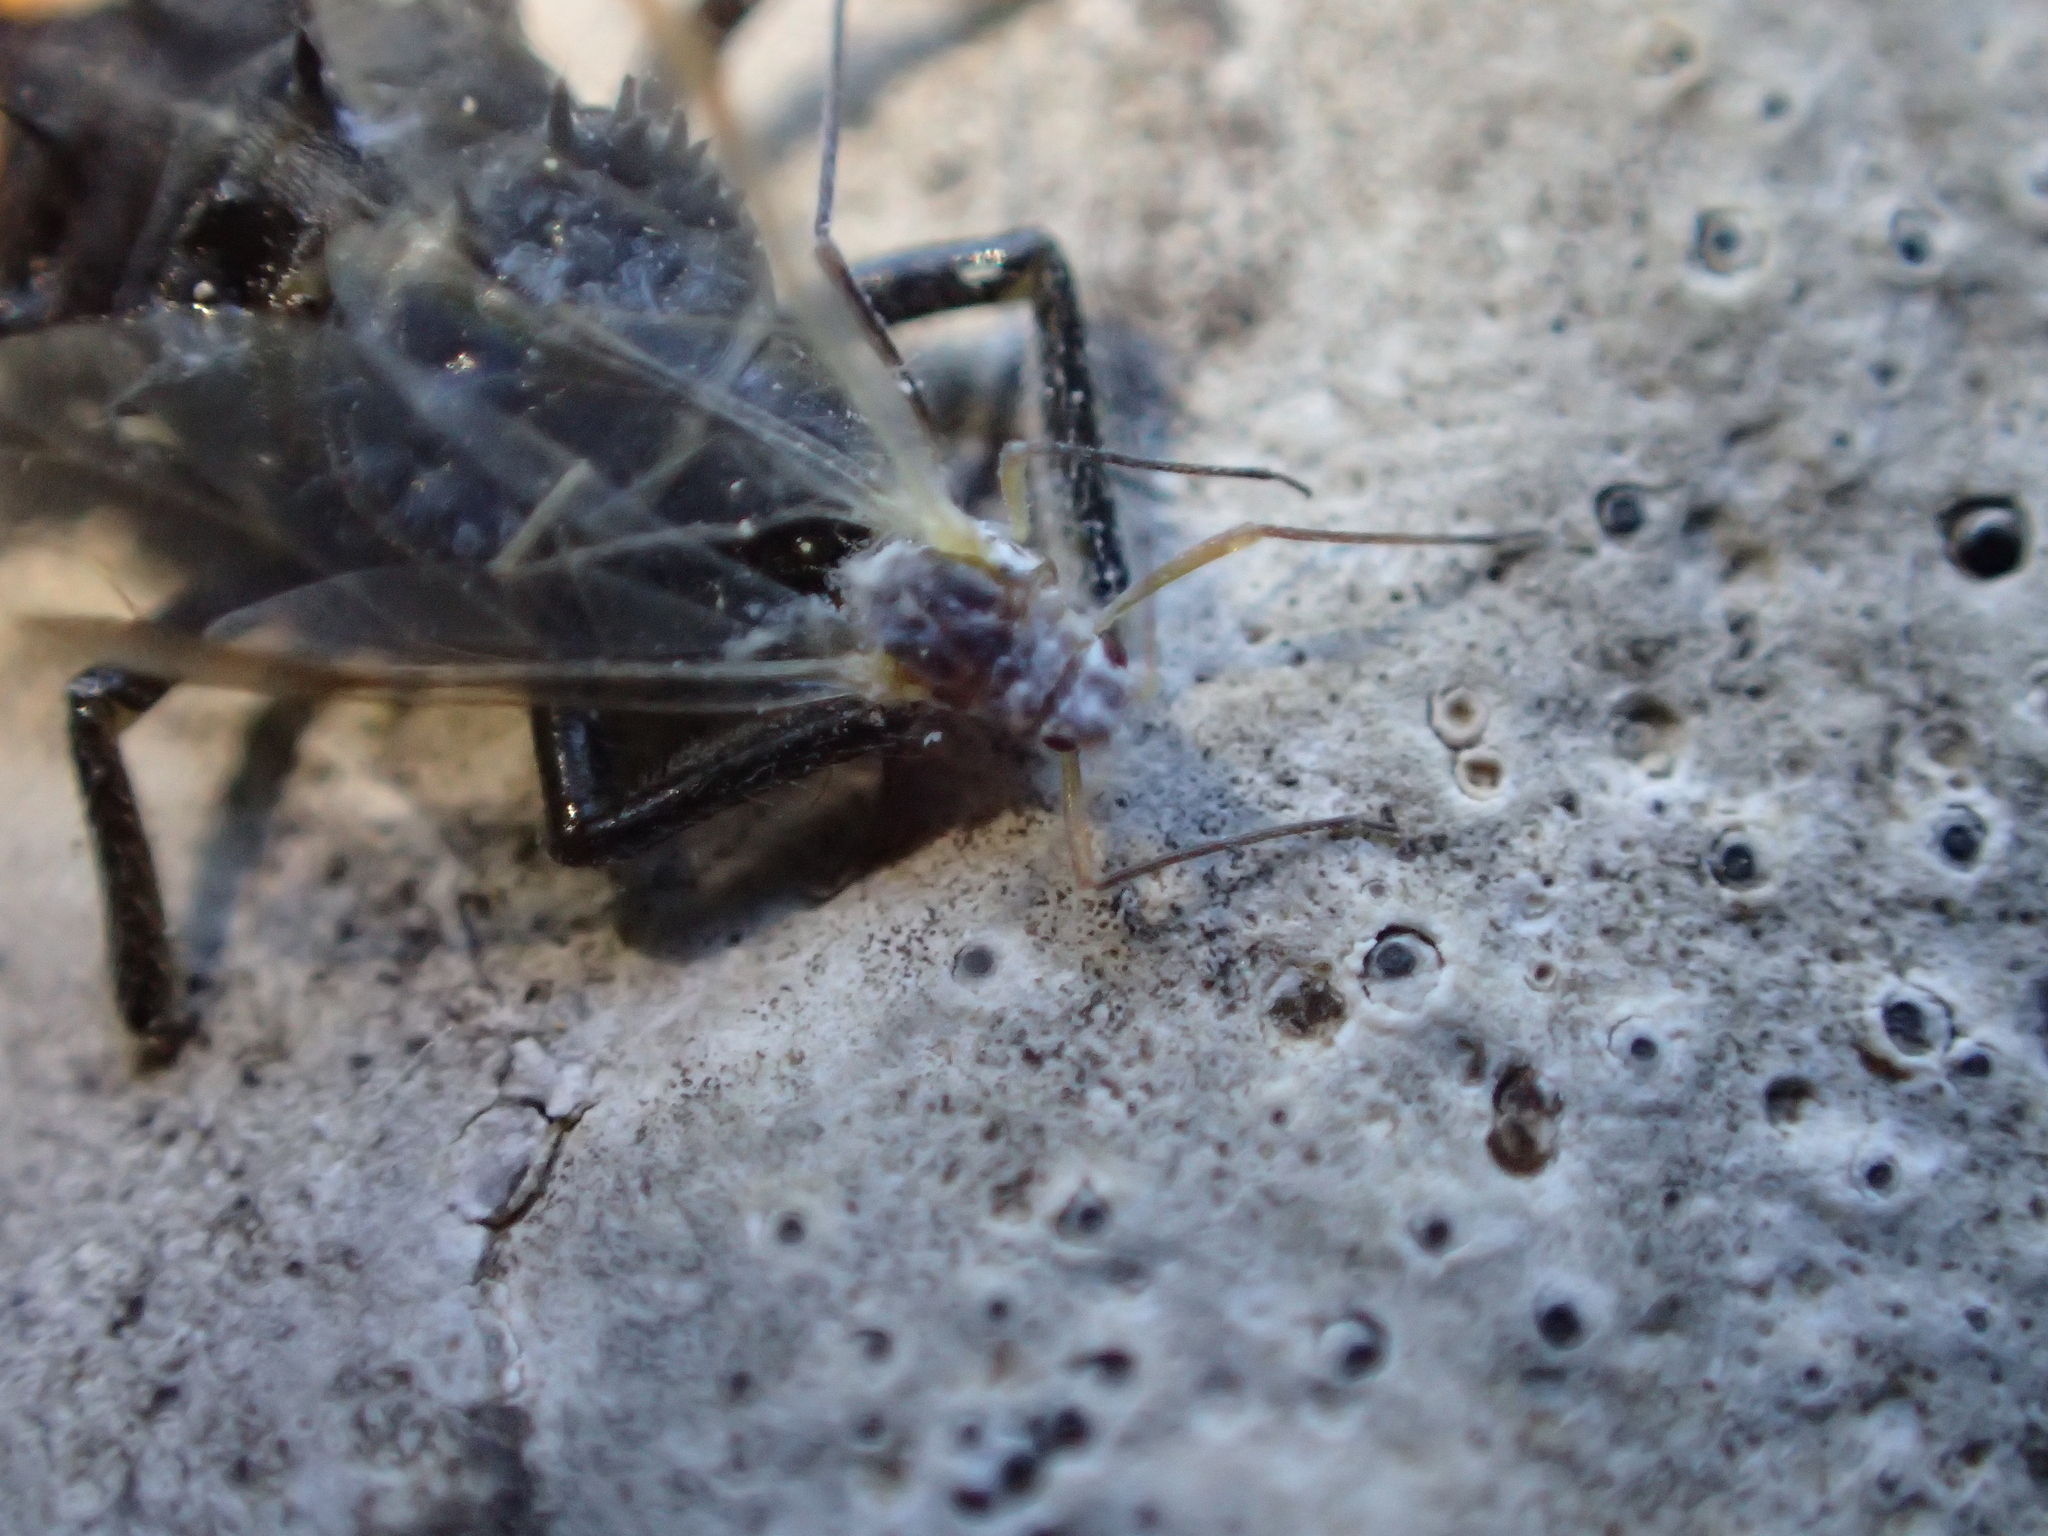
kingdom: Animalia
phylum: Arthropoda
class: Insecta
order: Coleoptera
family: Coccinellidae
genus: Harmonia
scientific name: Harmonia axyridis
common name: Harlequin ladybird
